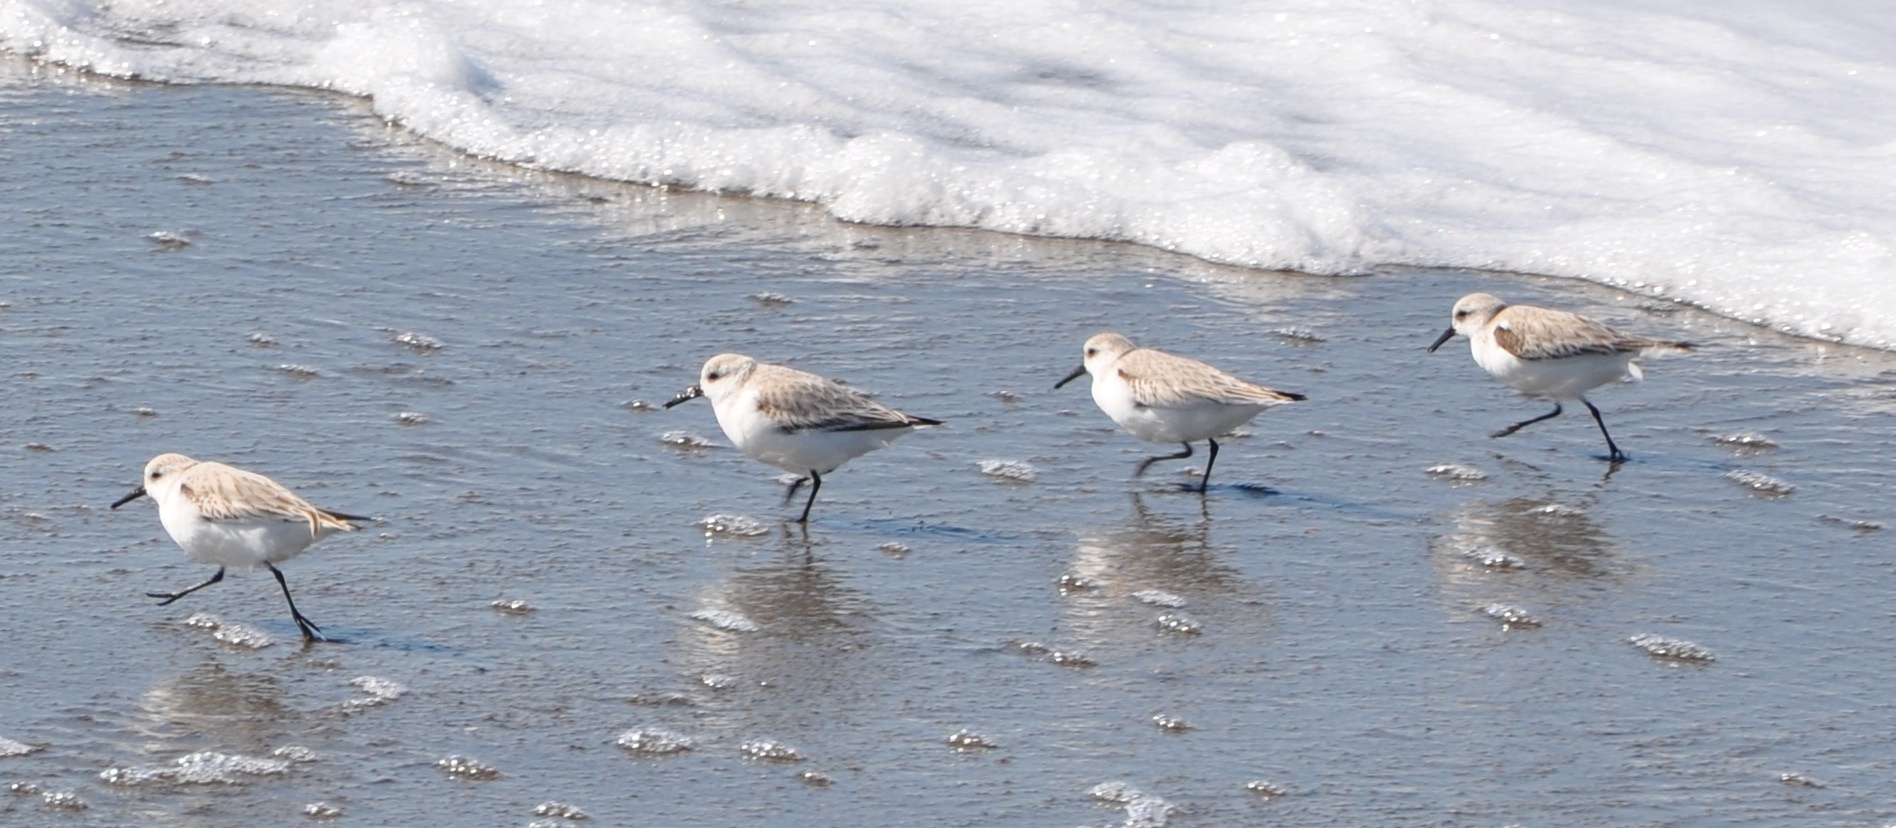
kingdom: Animalia
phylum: Chordata
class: Aves
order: Charadriiformes
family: Scolopacidae
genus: Calidris
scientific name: Calidris alba
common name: Sanderling
